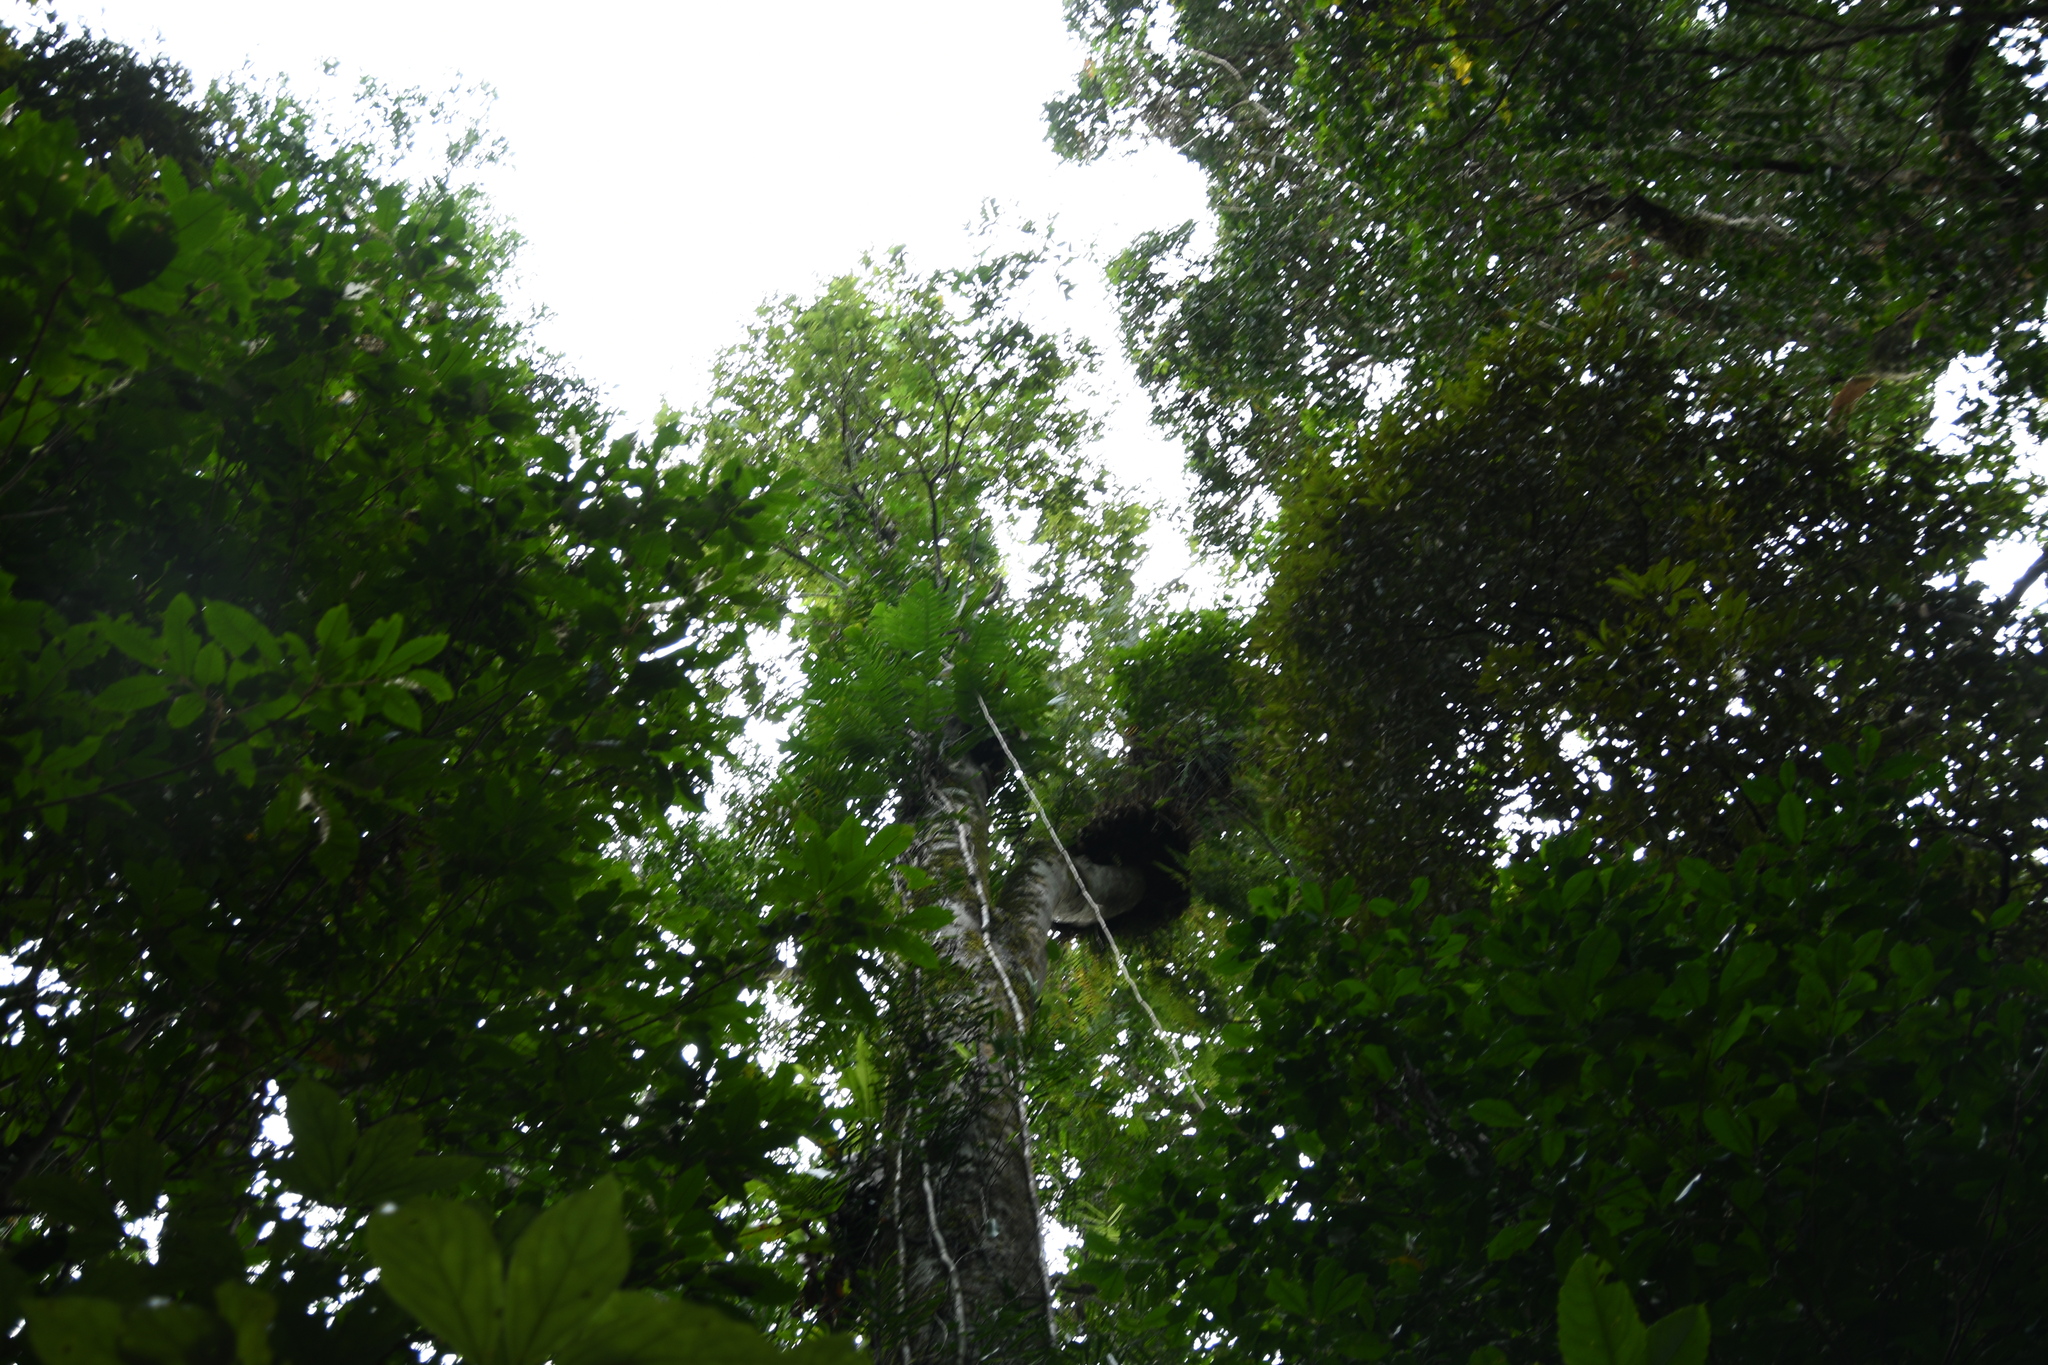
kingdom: Plantae
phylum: Tracheophyta
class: Magnoliopsida
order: Fabales
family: Fabaceae
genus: Castanospermum
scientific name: Castanospermum australe
